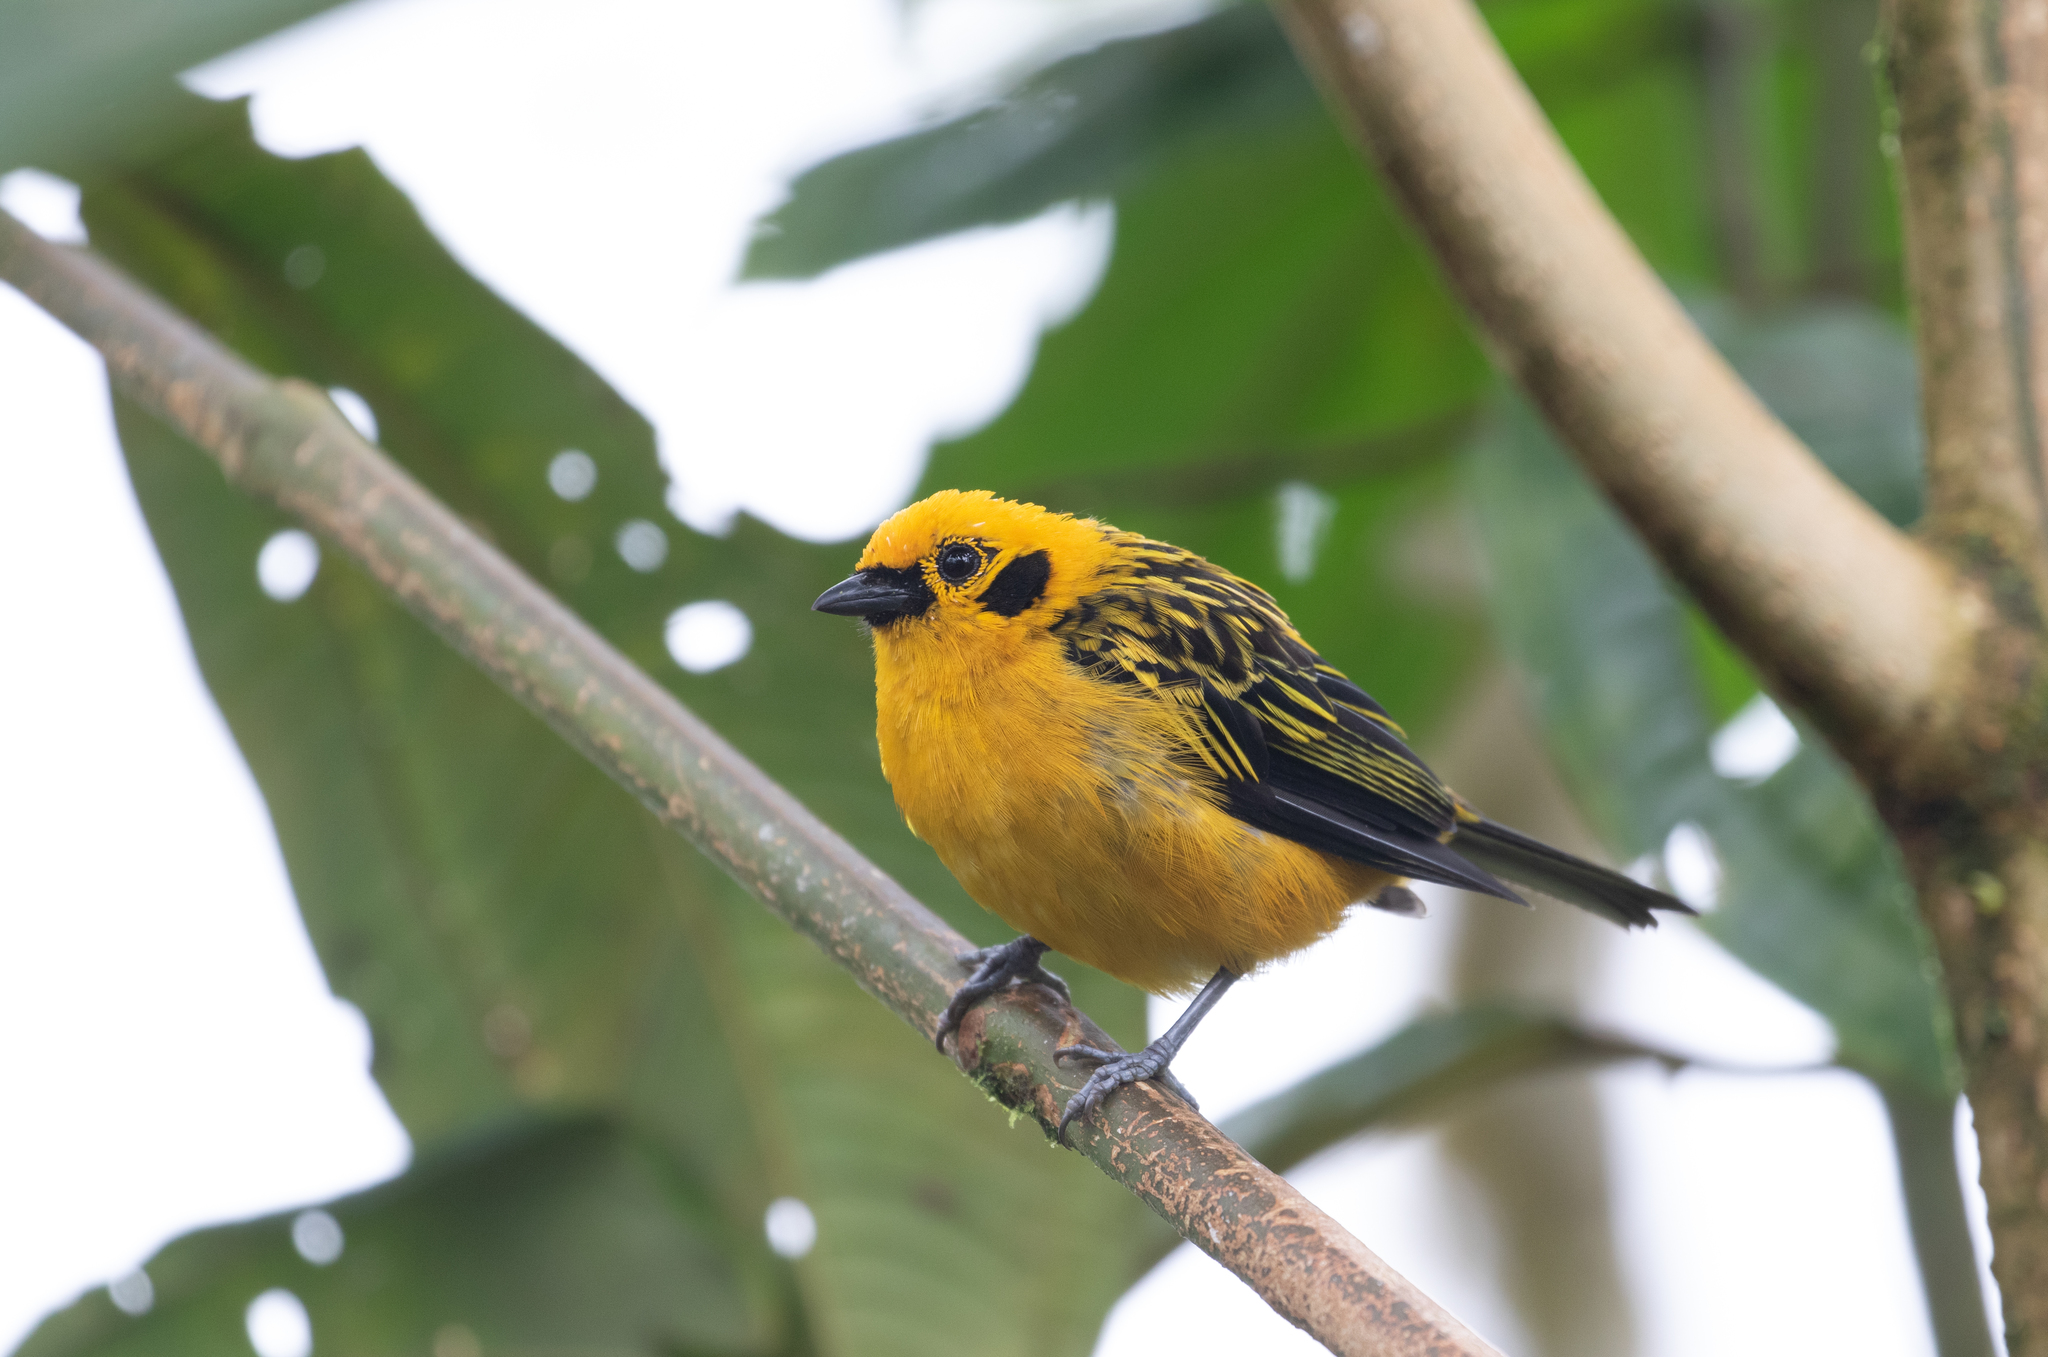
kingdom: Animalia
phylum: Chordata
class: Aves
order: Passeriformes
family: Thraupidae
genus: Tangara
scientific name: Tangara arthus
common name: Golden tanager
